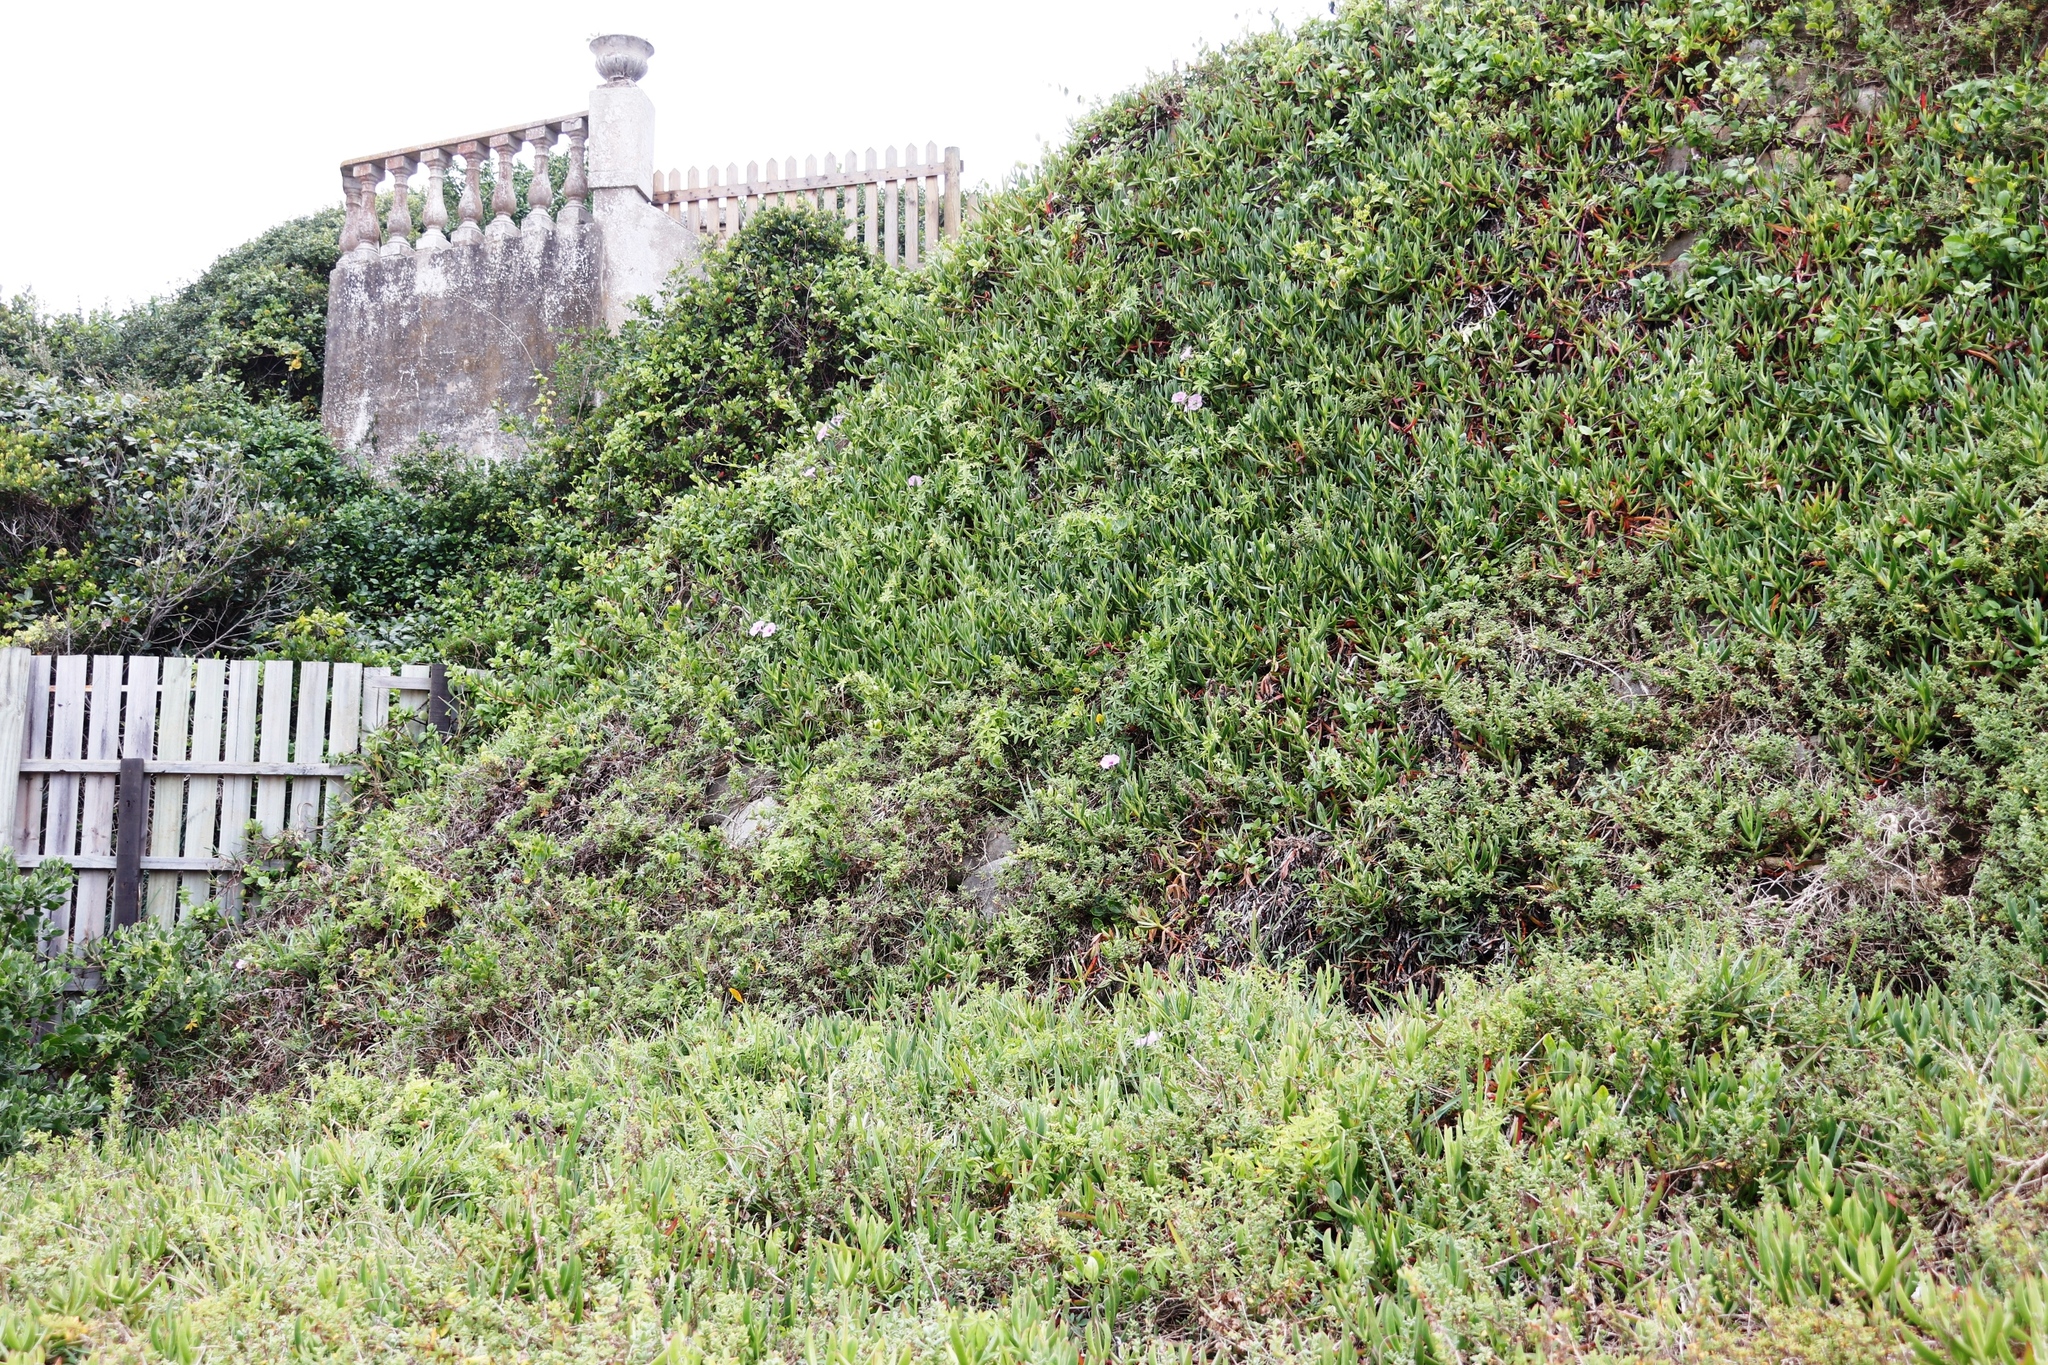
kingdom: Plantae
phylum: Tracheophyta
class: Magnoliopsida
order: Solanales
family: Convolvulaceae
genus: Ipomoea
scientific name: Ipomoea cairica
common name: Mile a minute vine
